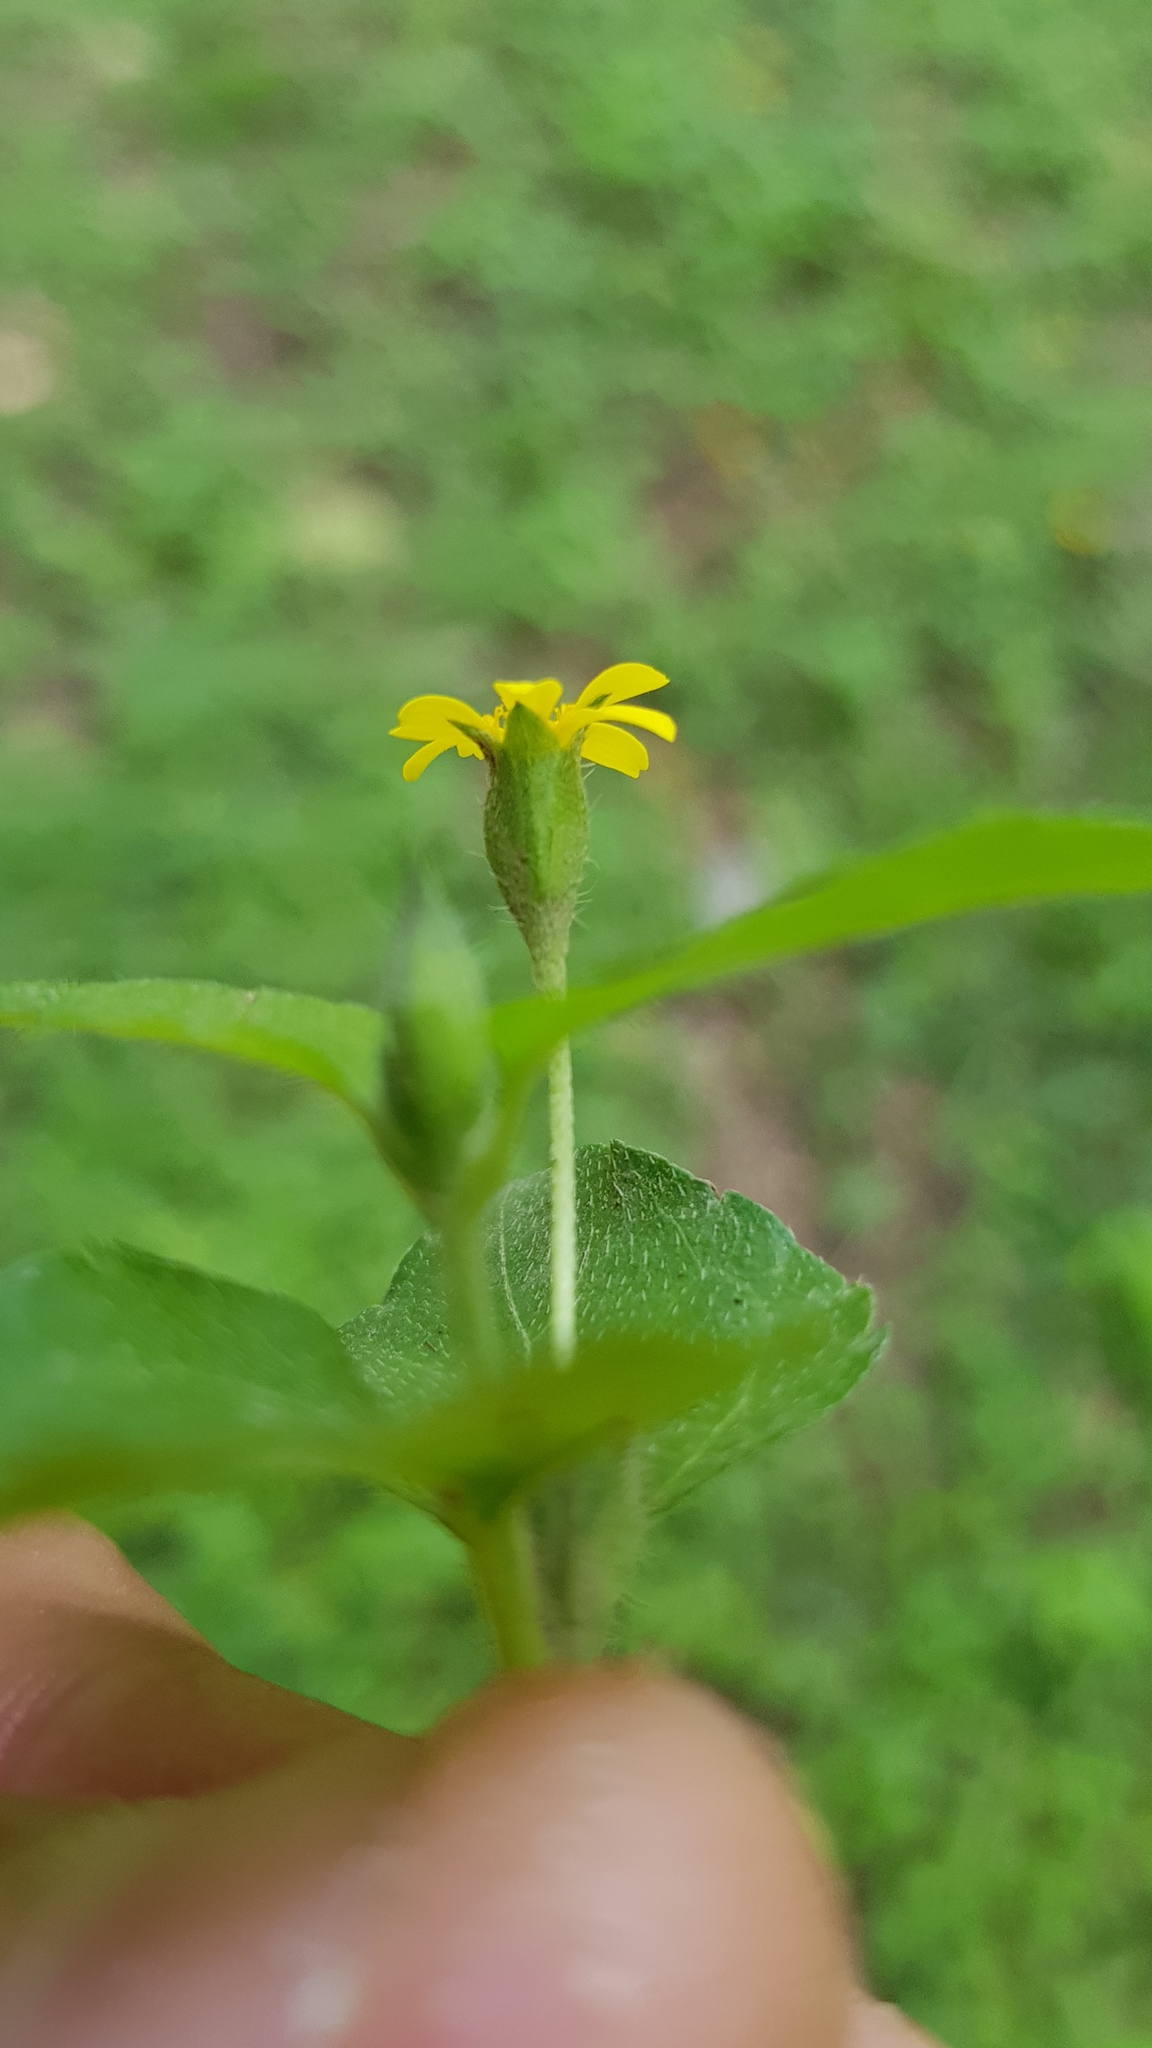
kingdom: Plantae
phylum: Tracheophyta
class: Magnoliopsida
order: Asterales
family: Asteraceae
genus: Calyptocarpus
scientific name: Calyptocarpus vialis
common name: Straggler daisy
